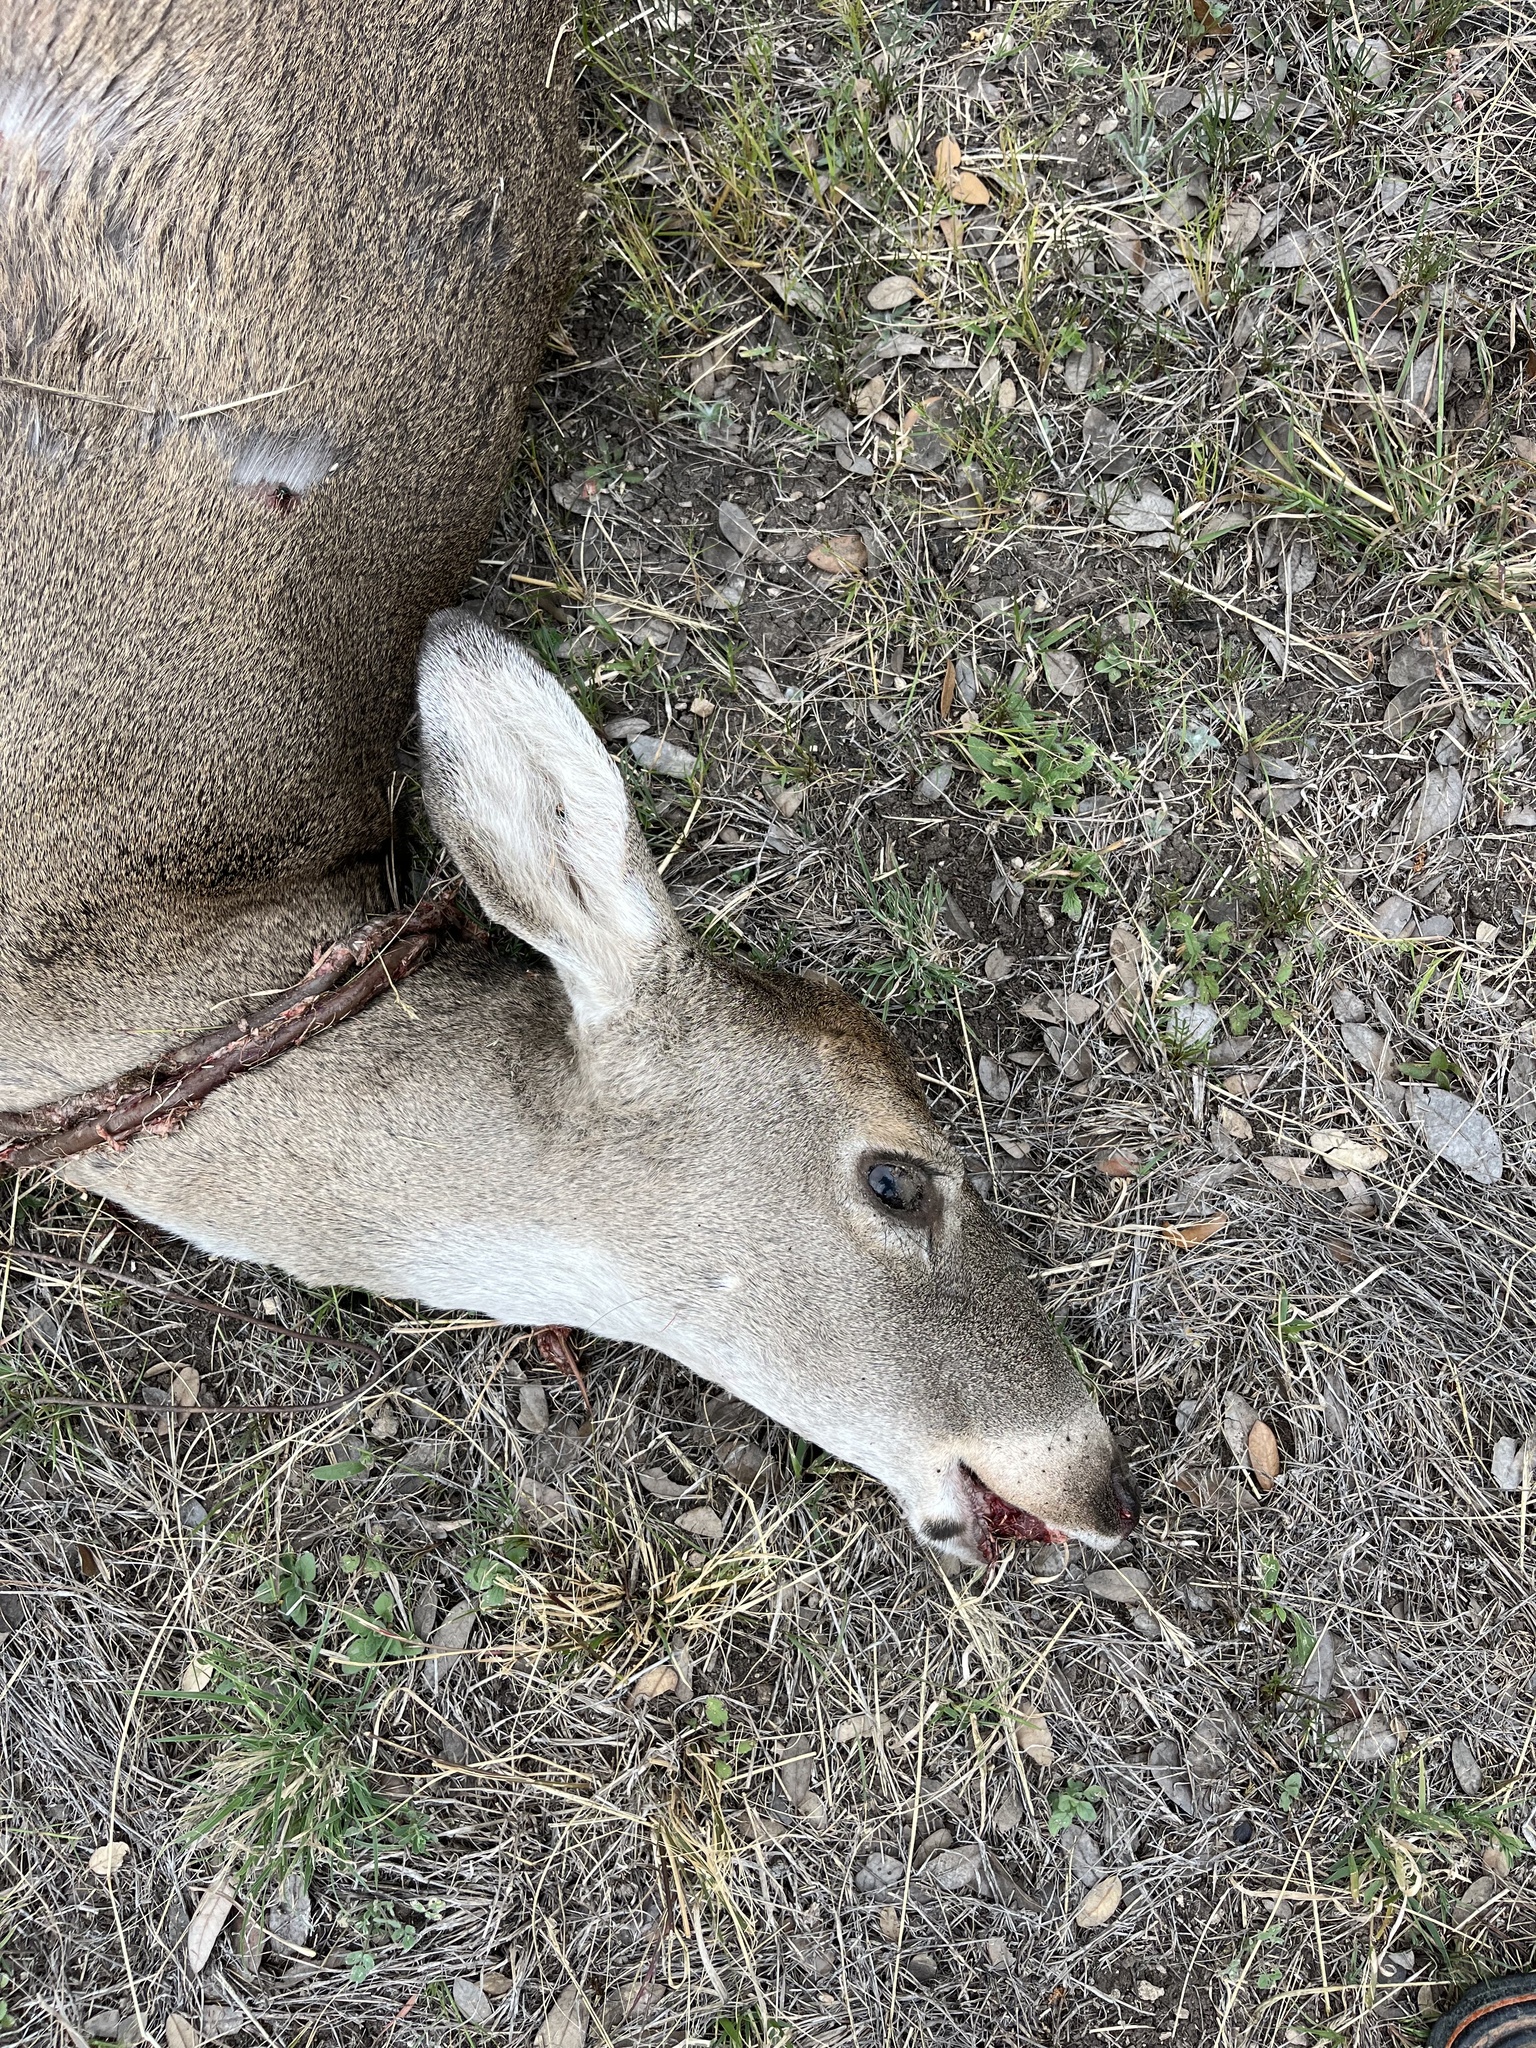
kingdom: Animalia
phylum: Chordata
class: Mammalia
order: Artiodactyla
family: Cervidae
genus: Odocoileus
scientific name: Odocoileus virginianus
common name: White-tailed deer
